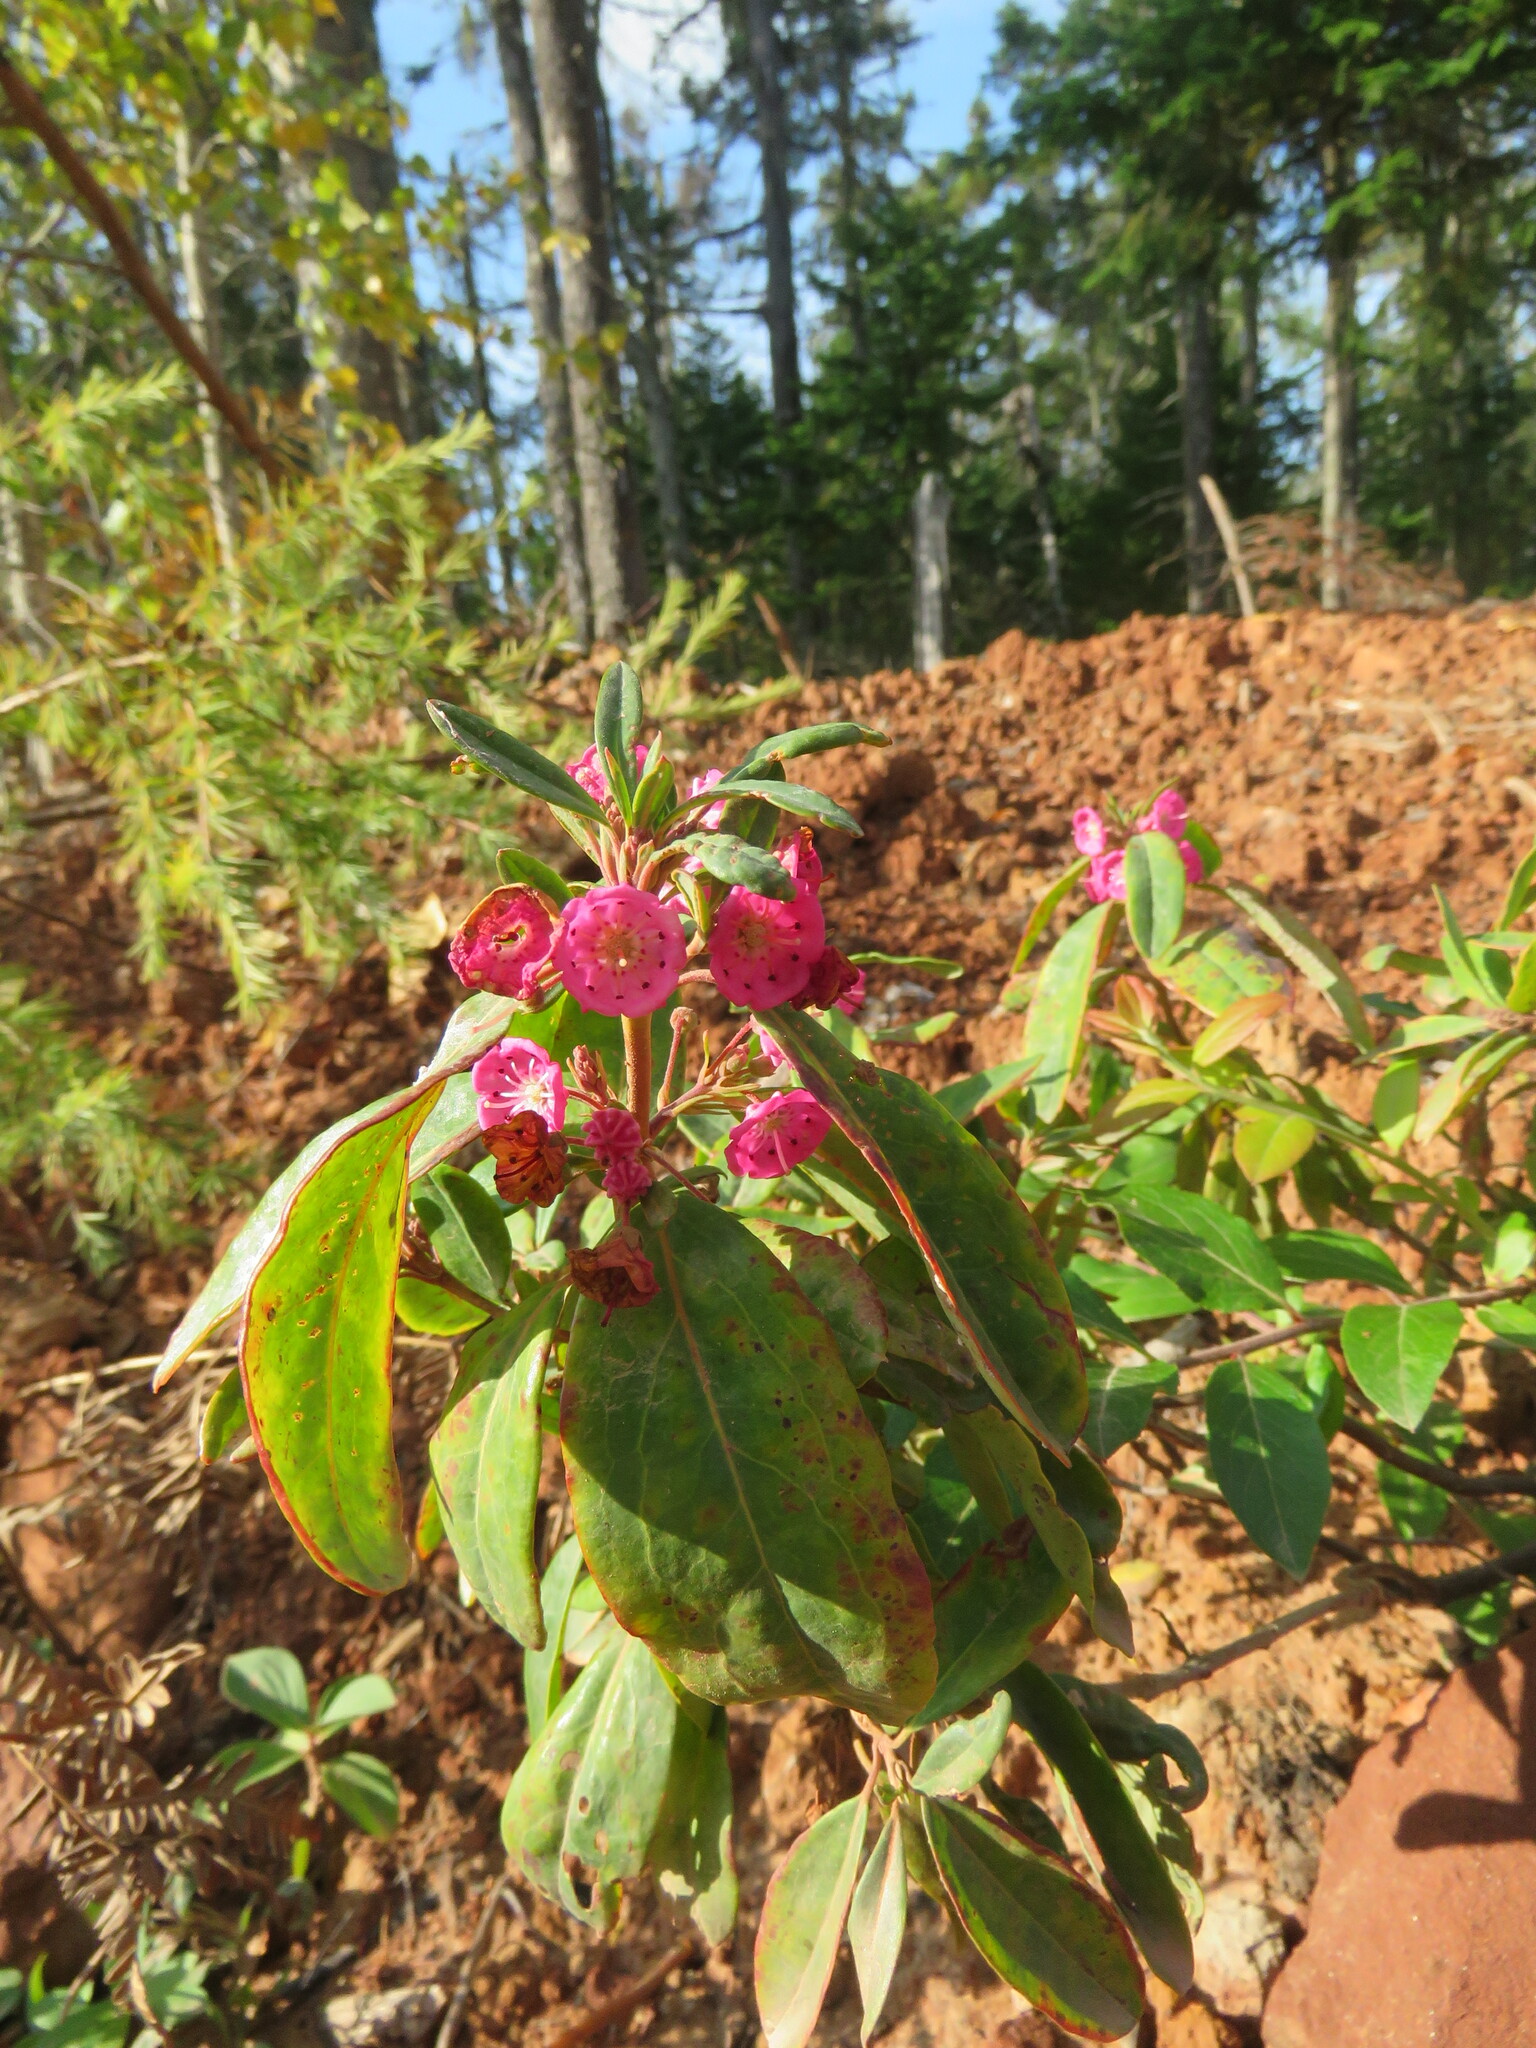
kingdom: Plantae
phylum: Tracheophyta
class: Magnoliopsida
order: Ericales
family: Ericaceae
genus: Kalmia
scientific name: Kalmia angustifolia
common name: Sheep-laurel
